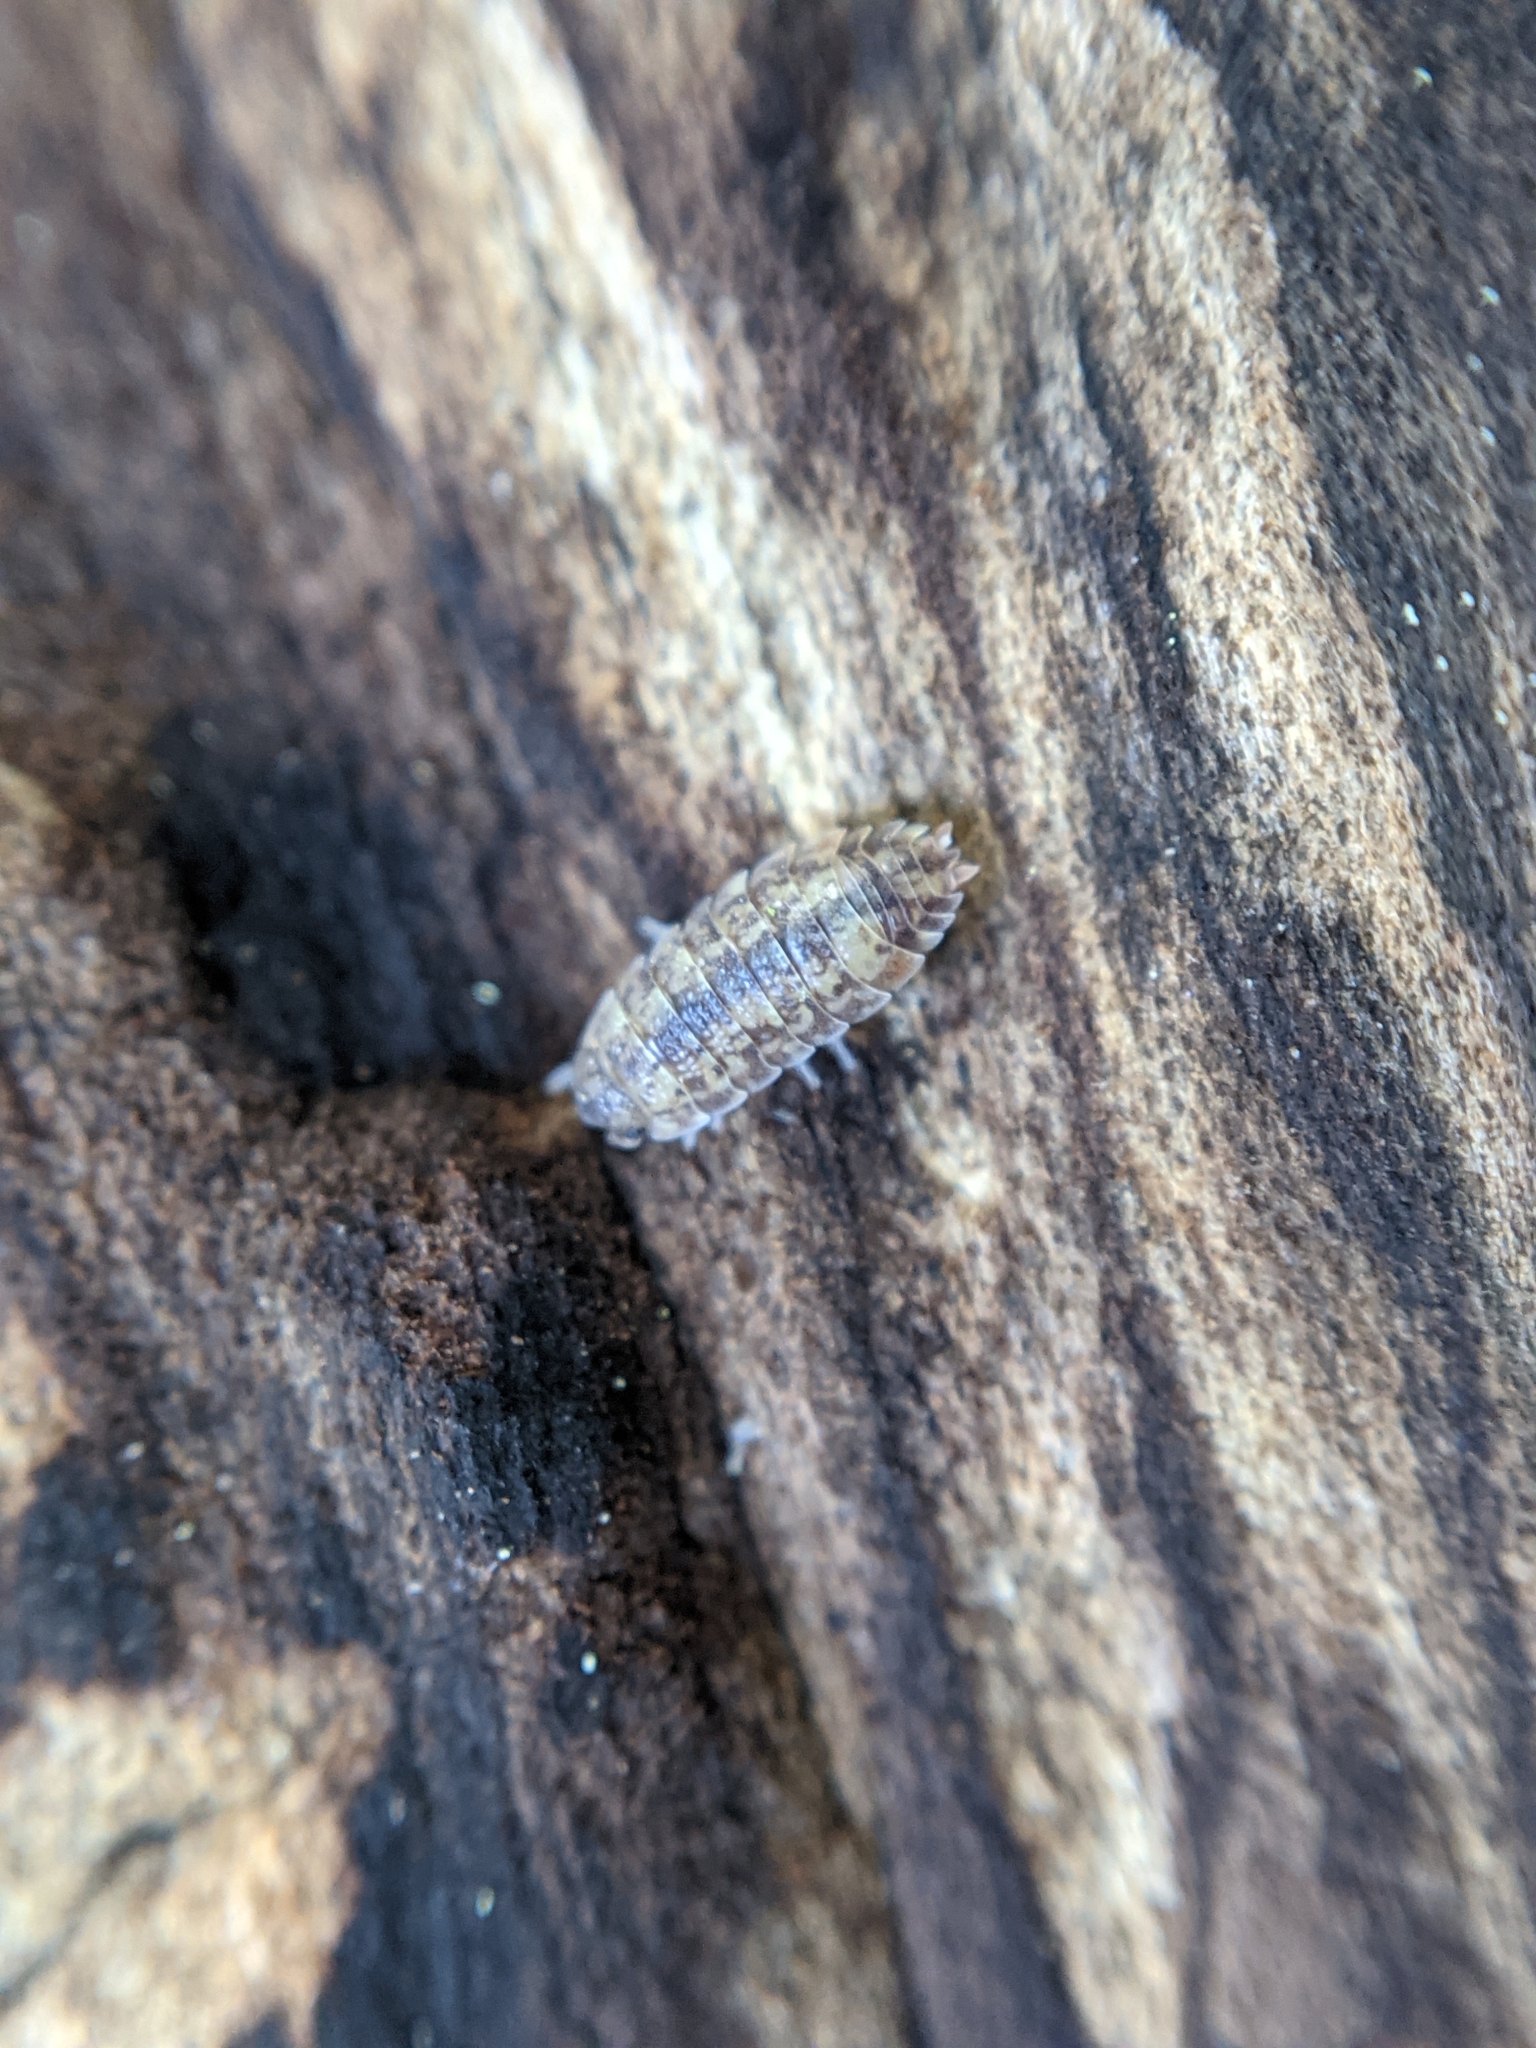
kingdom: Animalia
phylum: Arthropoda
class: Malacostraca
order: Isopoda
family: Porcellionidae
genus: Porcellio
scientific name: Porcellio scaber
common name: Common rough woodlouse
